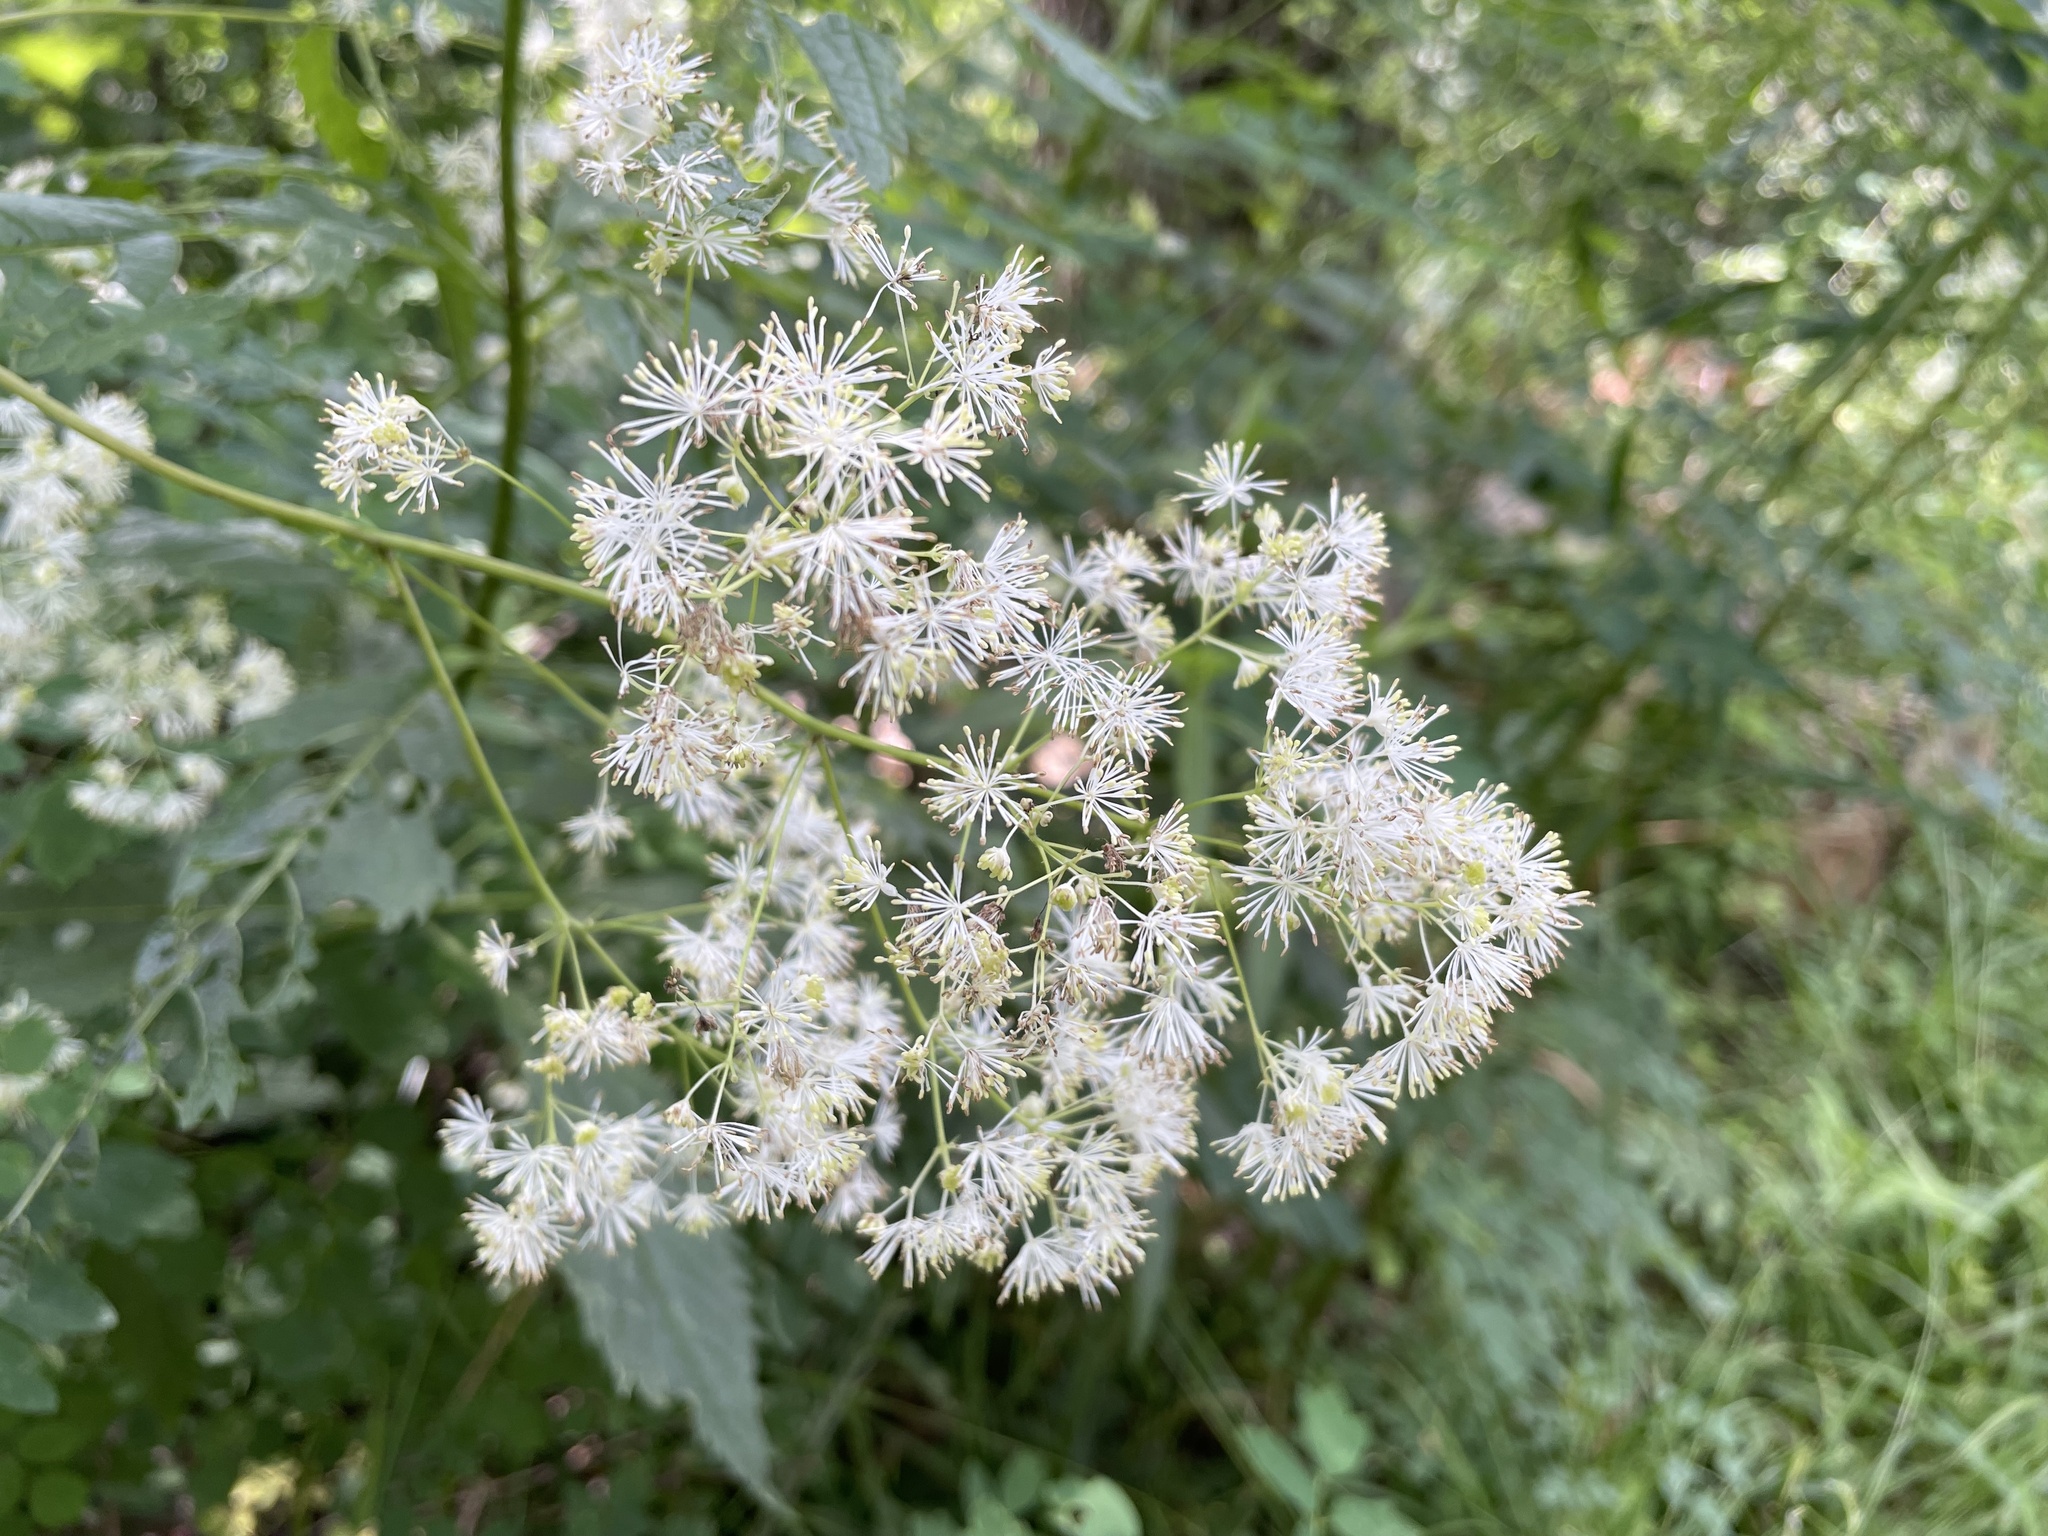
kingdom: Plantae
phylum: Tracheophyta
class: Magnoliopsida
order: Ranunculales
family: Ranunculaceae
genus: Thalictrum
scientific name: Thalictrum pubescens
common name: King-of-the-meadow
